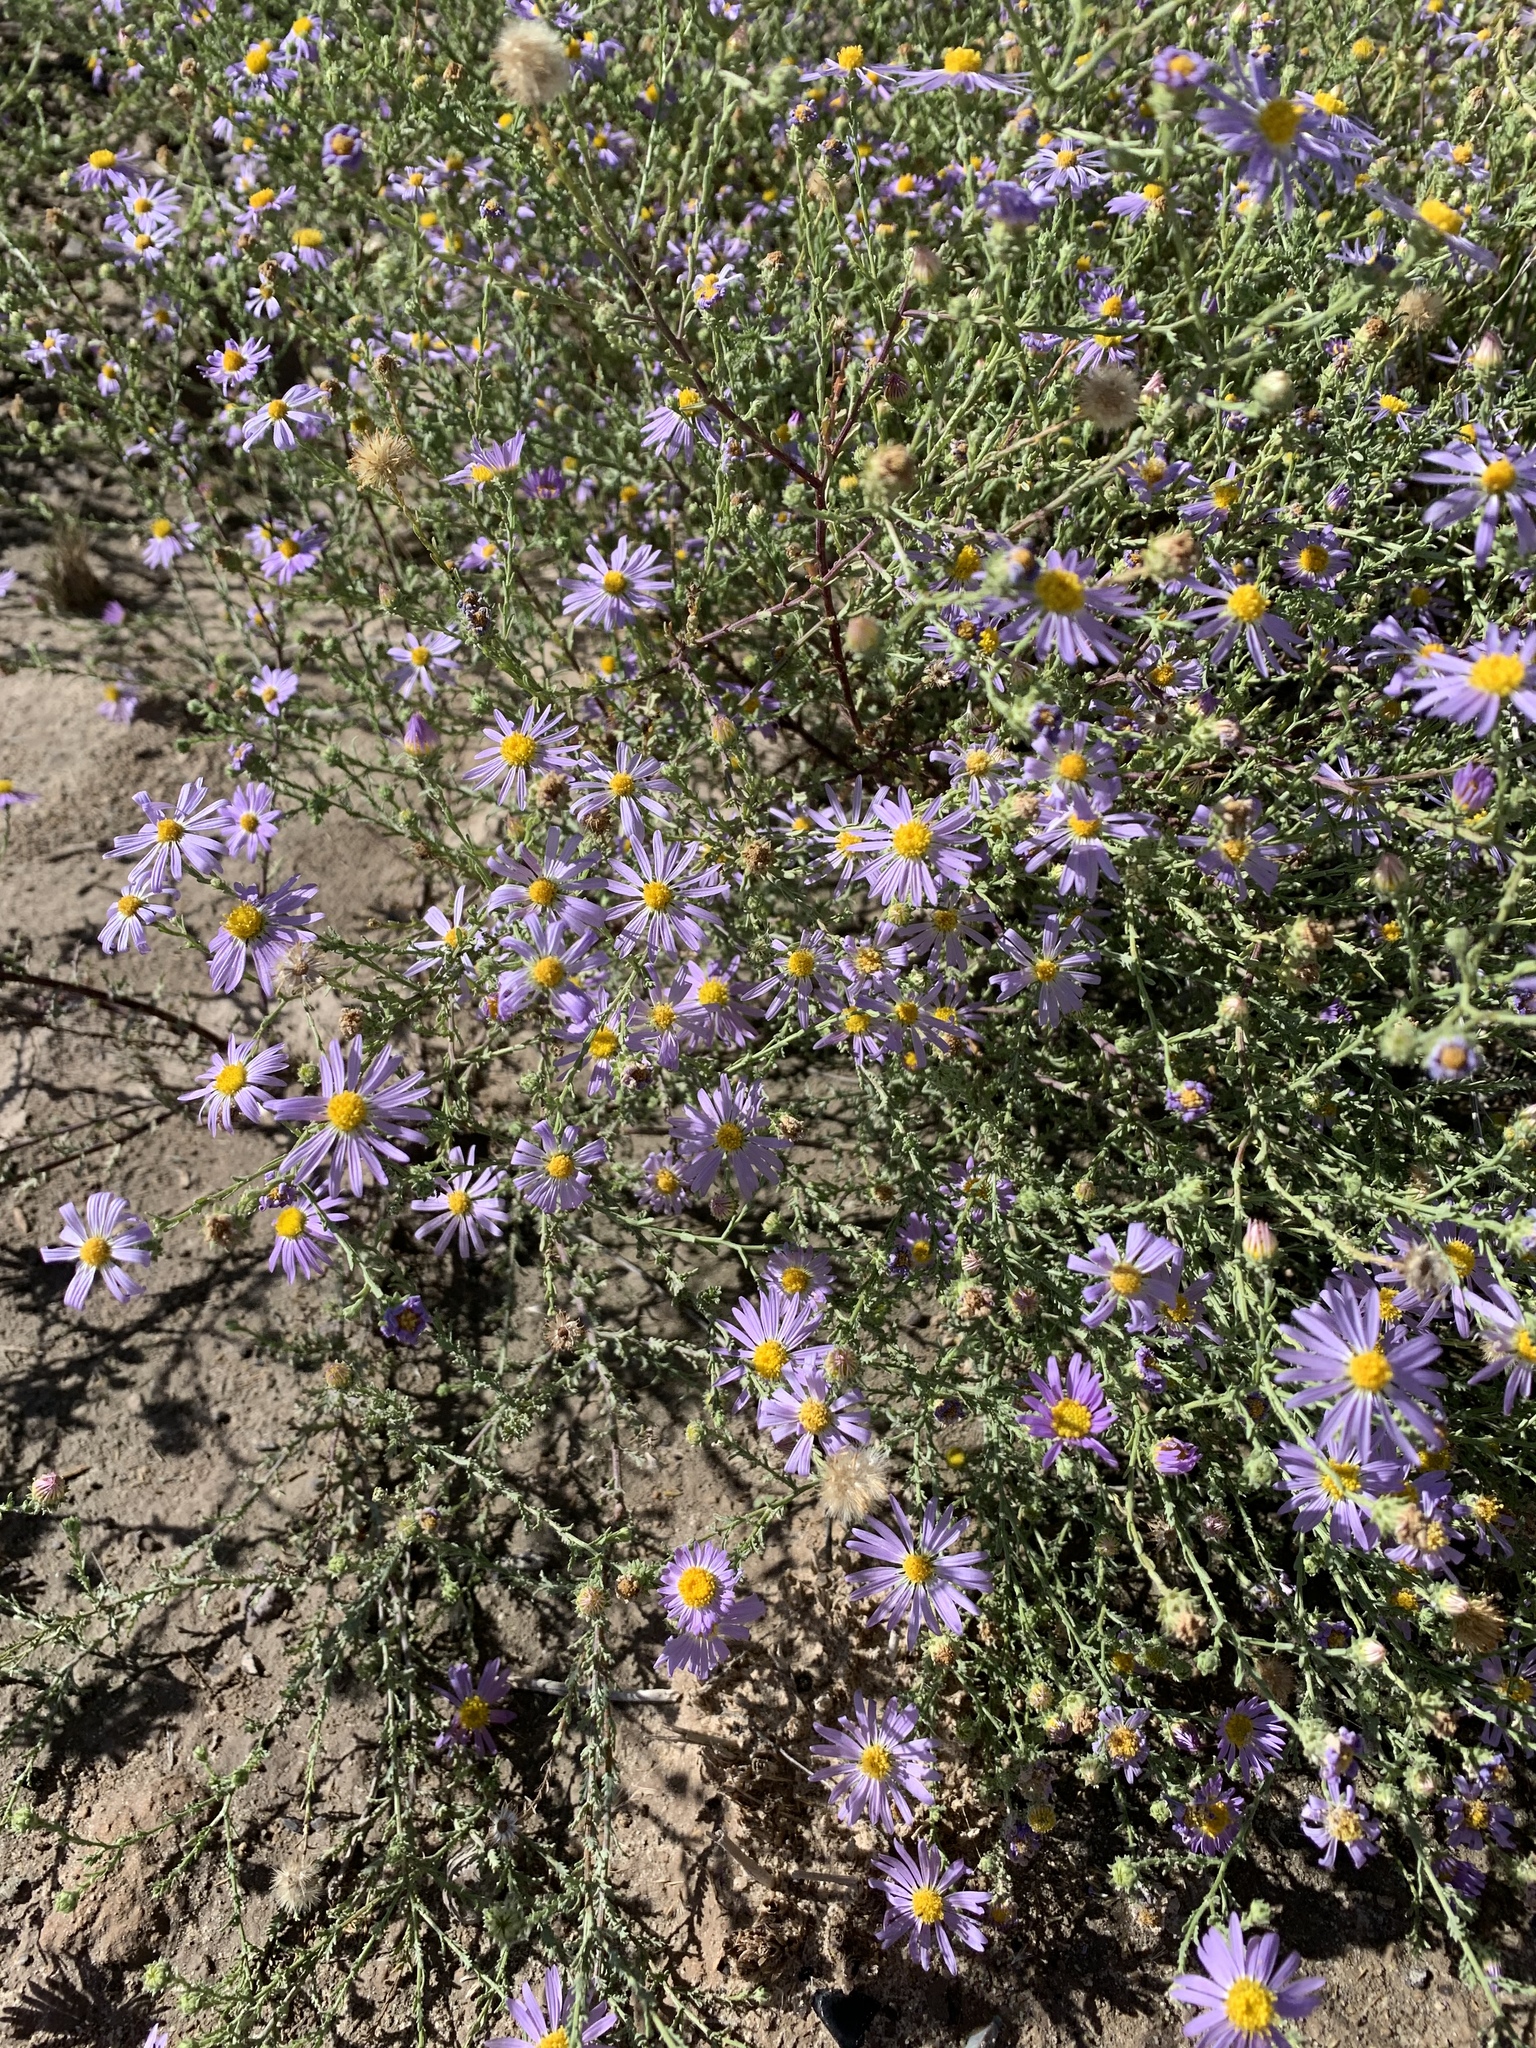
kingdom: Plantae
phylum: Tracheophyta
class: Magnoliopsida
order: Asterales
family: Asteraceae
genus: Machaeranthera
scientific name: Machaeranthera tanacetifolia
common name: Tansy-aster
